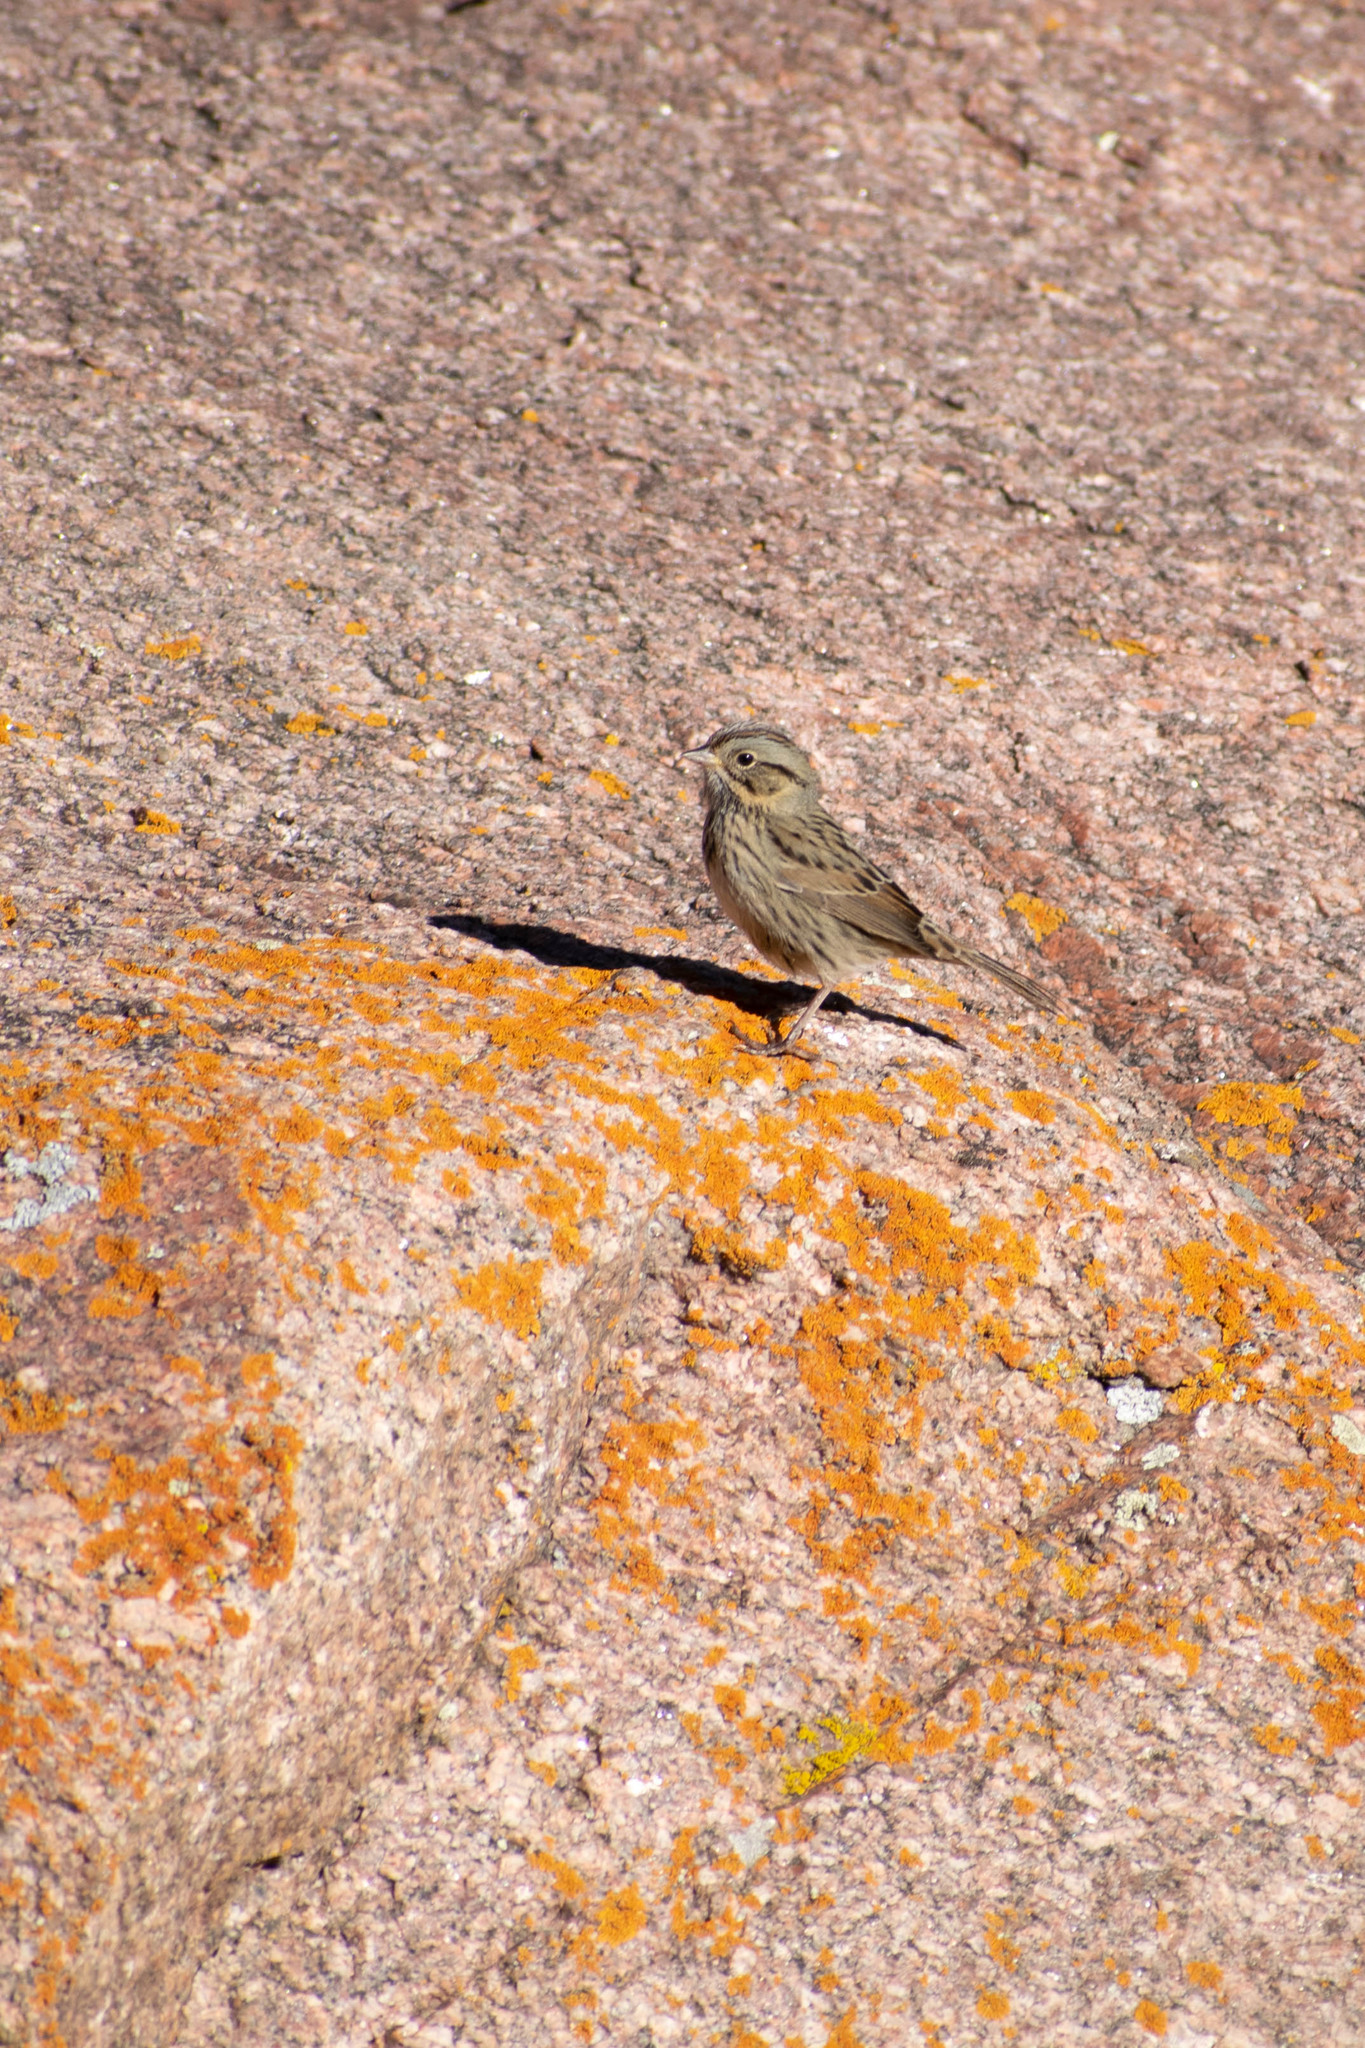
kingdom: Animalia
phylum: Chordata
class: Aves
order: Passeriformes
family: Passerellidae
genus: Melospiza
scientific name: Melospiza lincolnii
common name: Lincoln's sparrow
